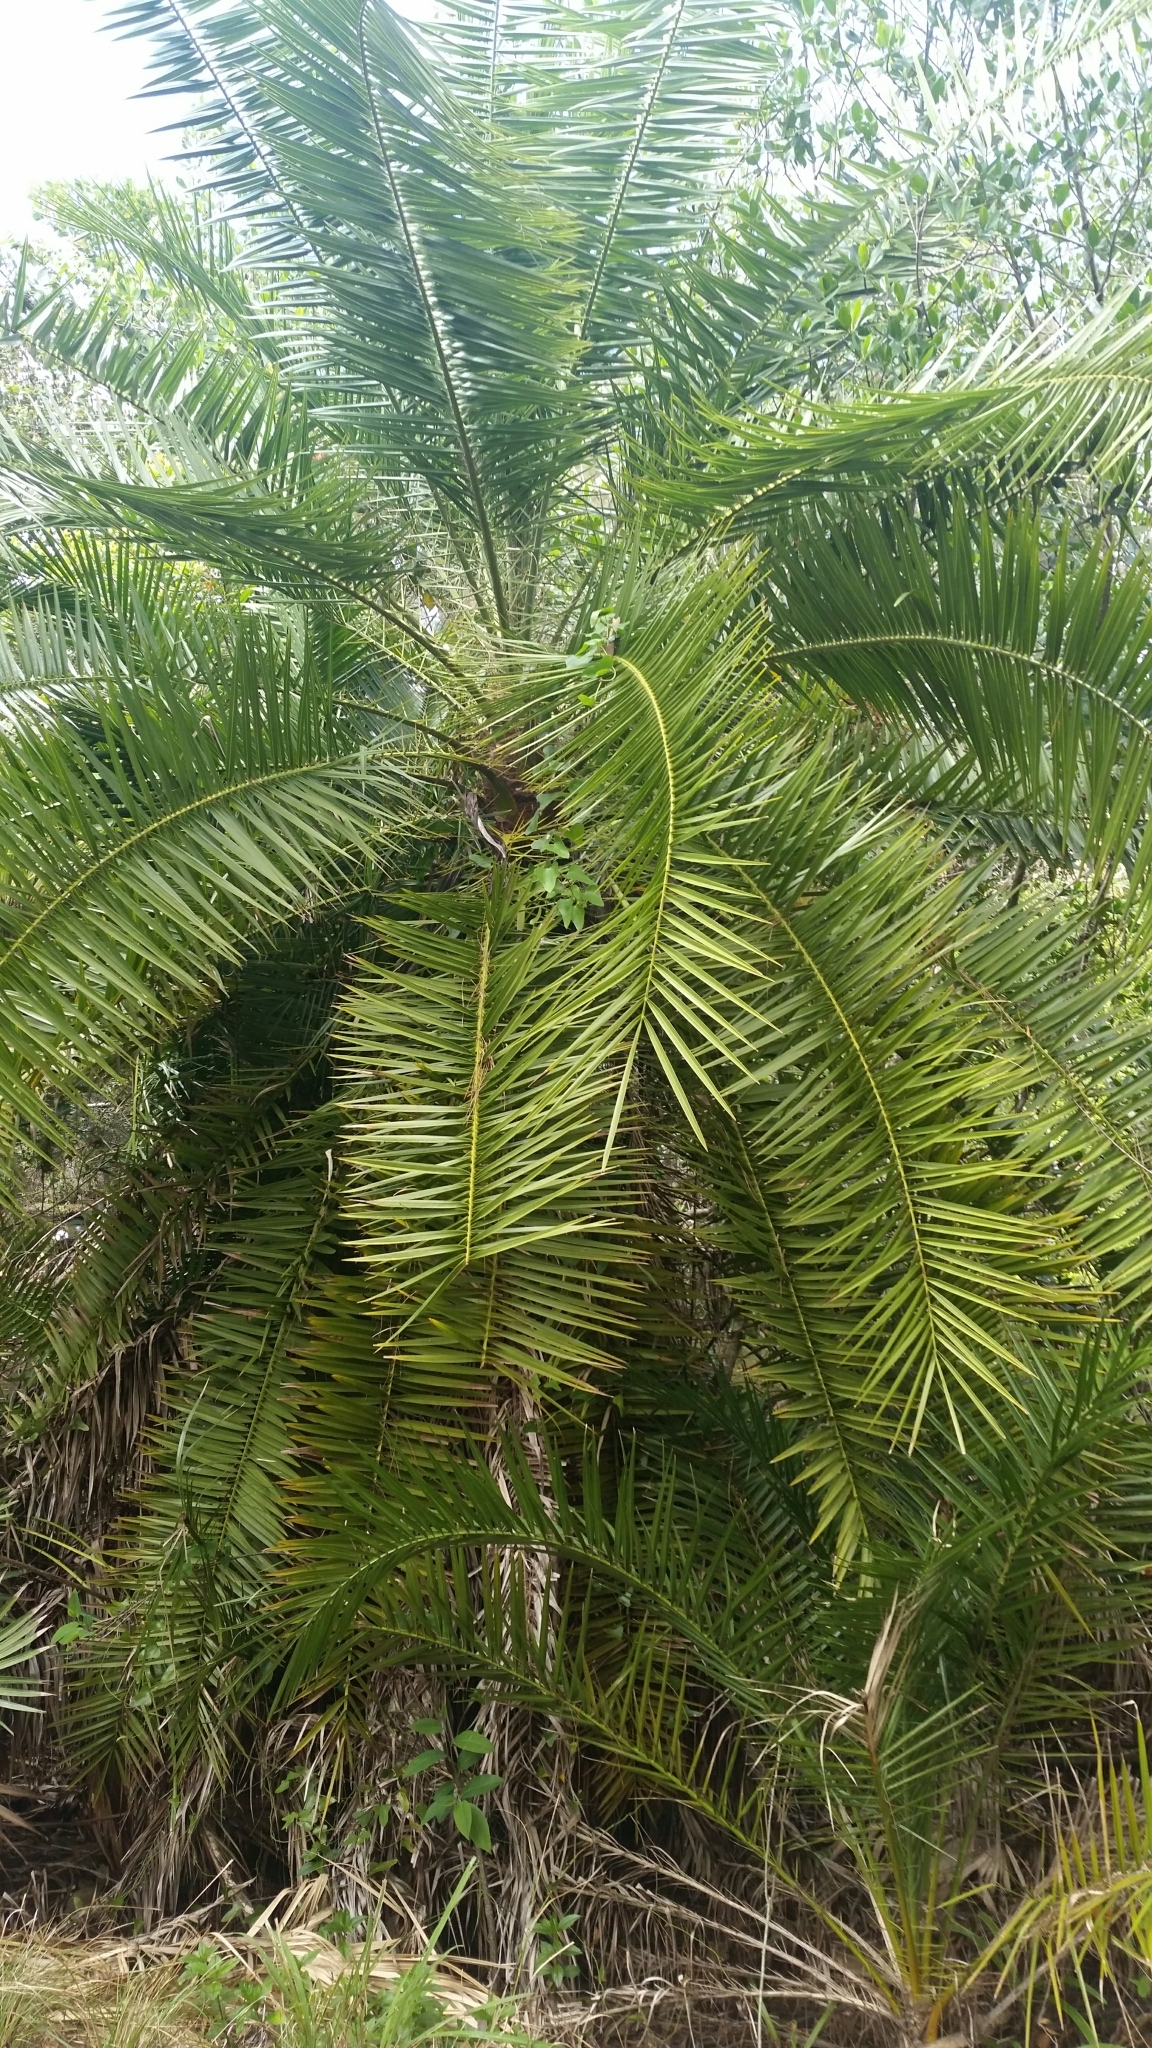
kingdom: Plantae
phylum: Tracheophyta
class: Liliopsida
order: Arecales
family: Arecaceae
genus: Phoenix
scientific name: Phoenix reclinata
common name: Senegal date palm
